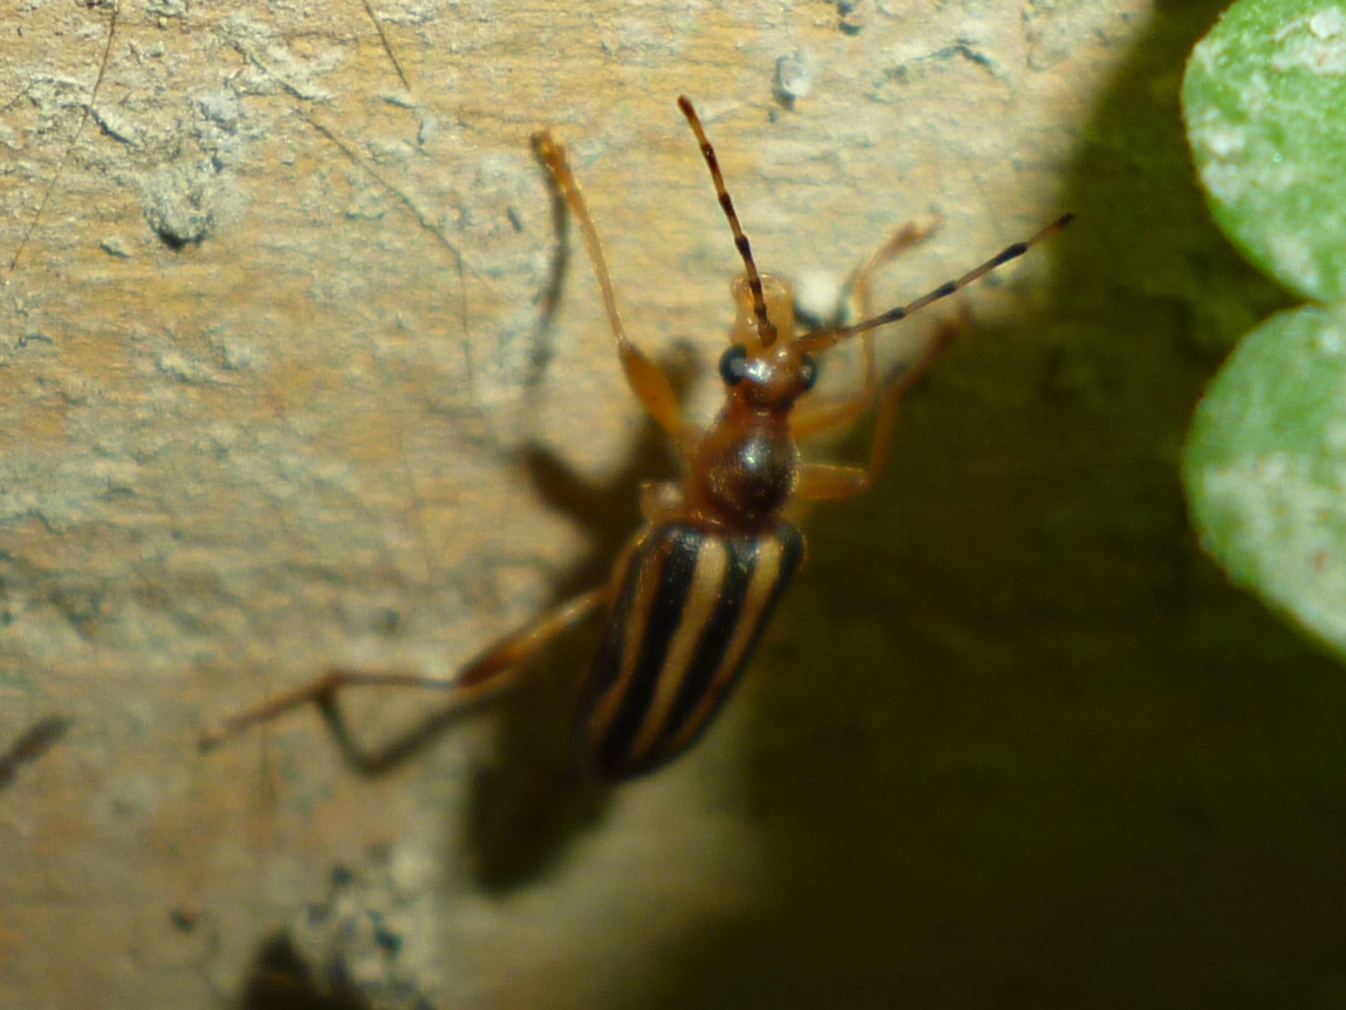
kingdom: Animalia
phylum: Arthropoda
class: Insecta
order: Coleoptera
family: Cerambycidae
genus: Metacmaeops
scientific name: Metacmaeops vittata
